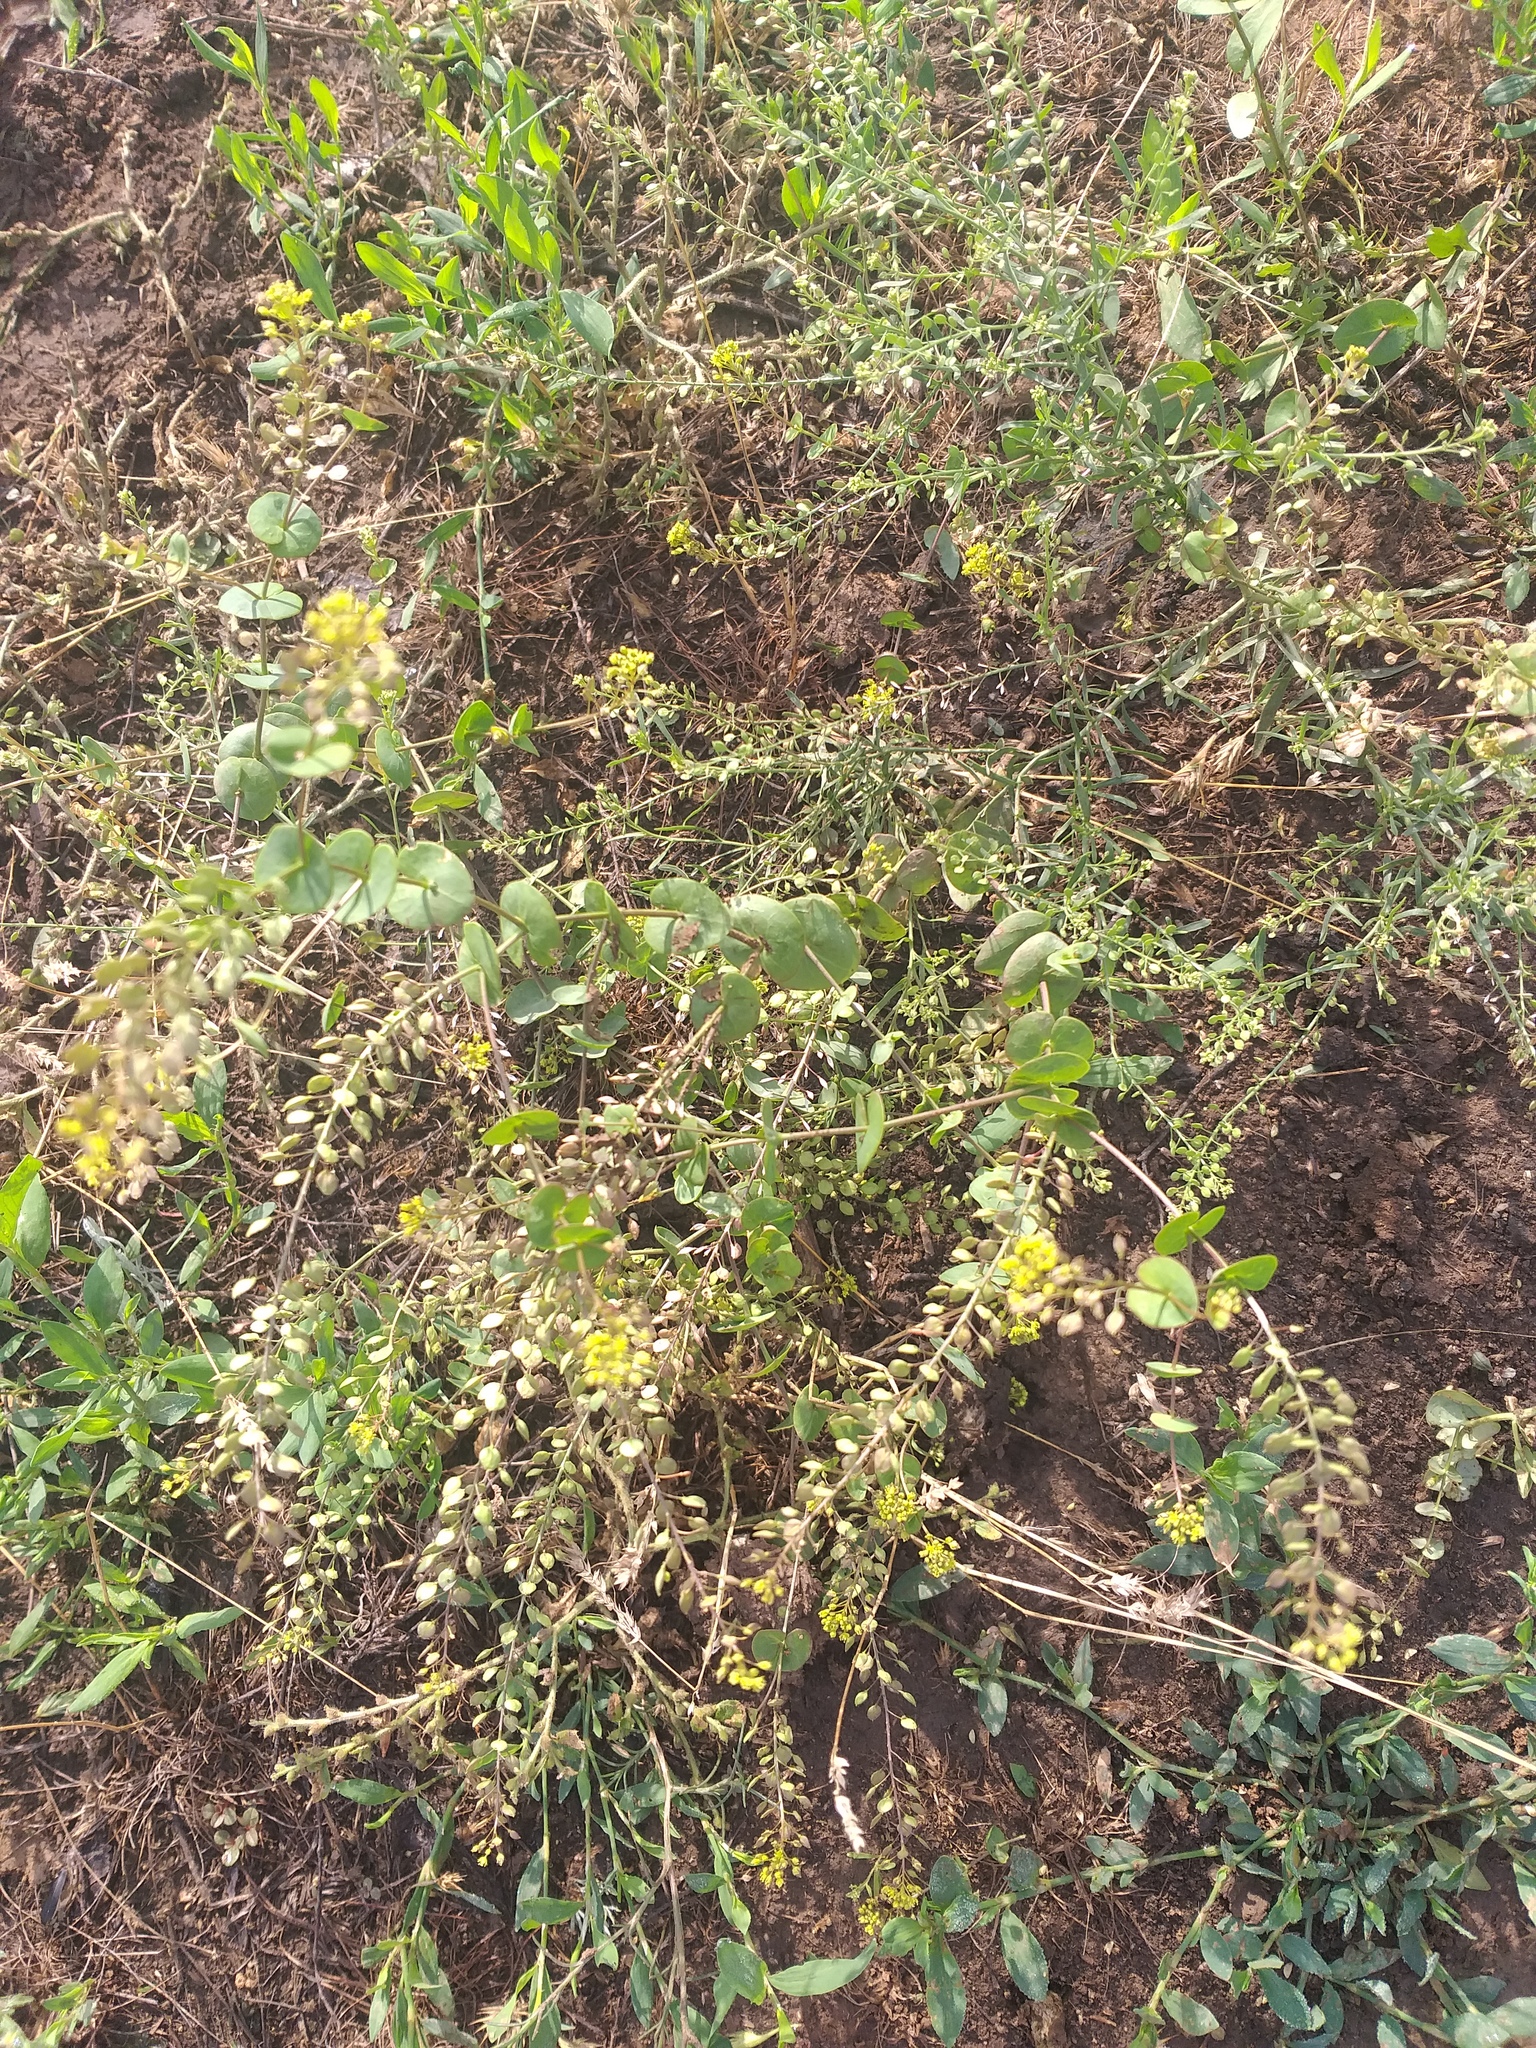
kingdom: Plantae
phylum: Tracheophyta
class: Magnoliopsida
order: Brassicales
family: Brassicaceae
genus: Lepidium
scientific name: Lepidium perfoliatum
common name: Perfoliate pepperwort
